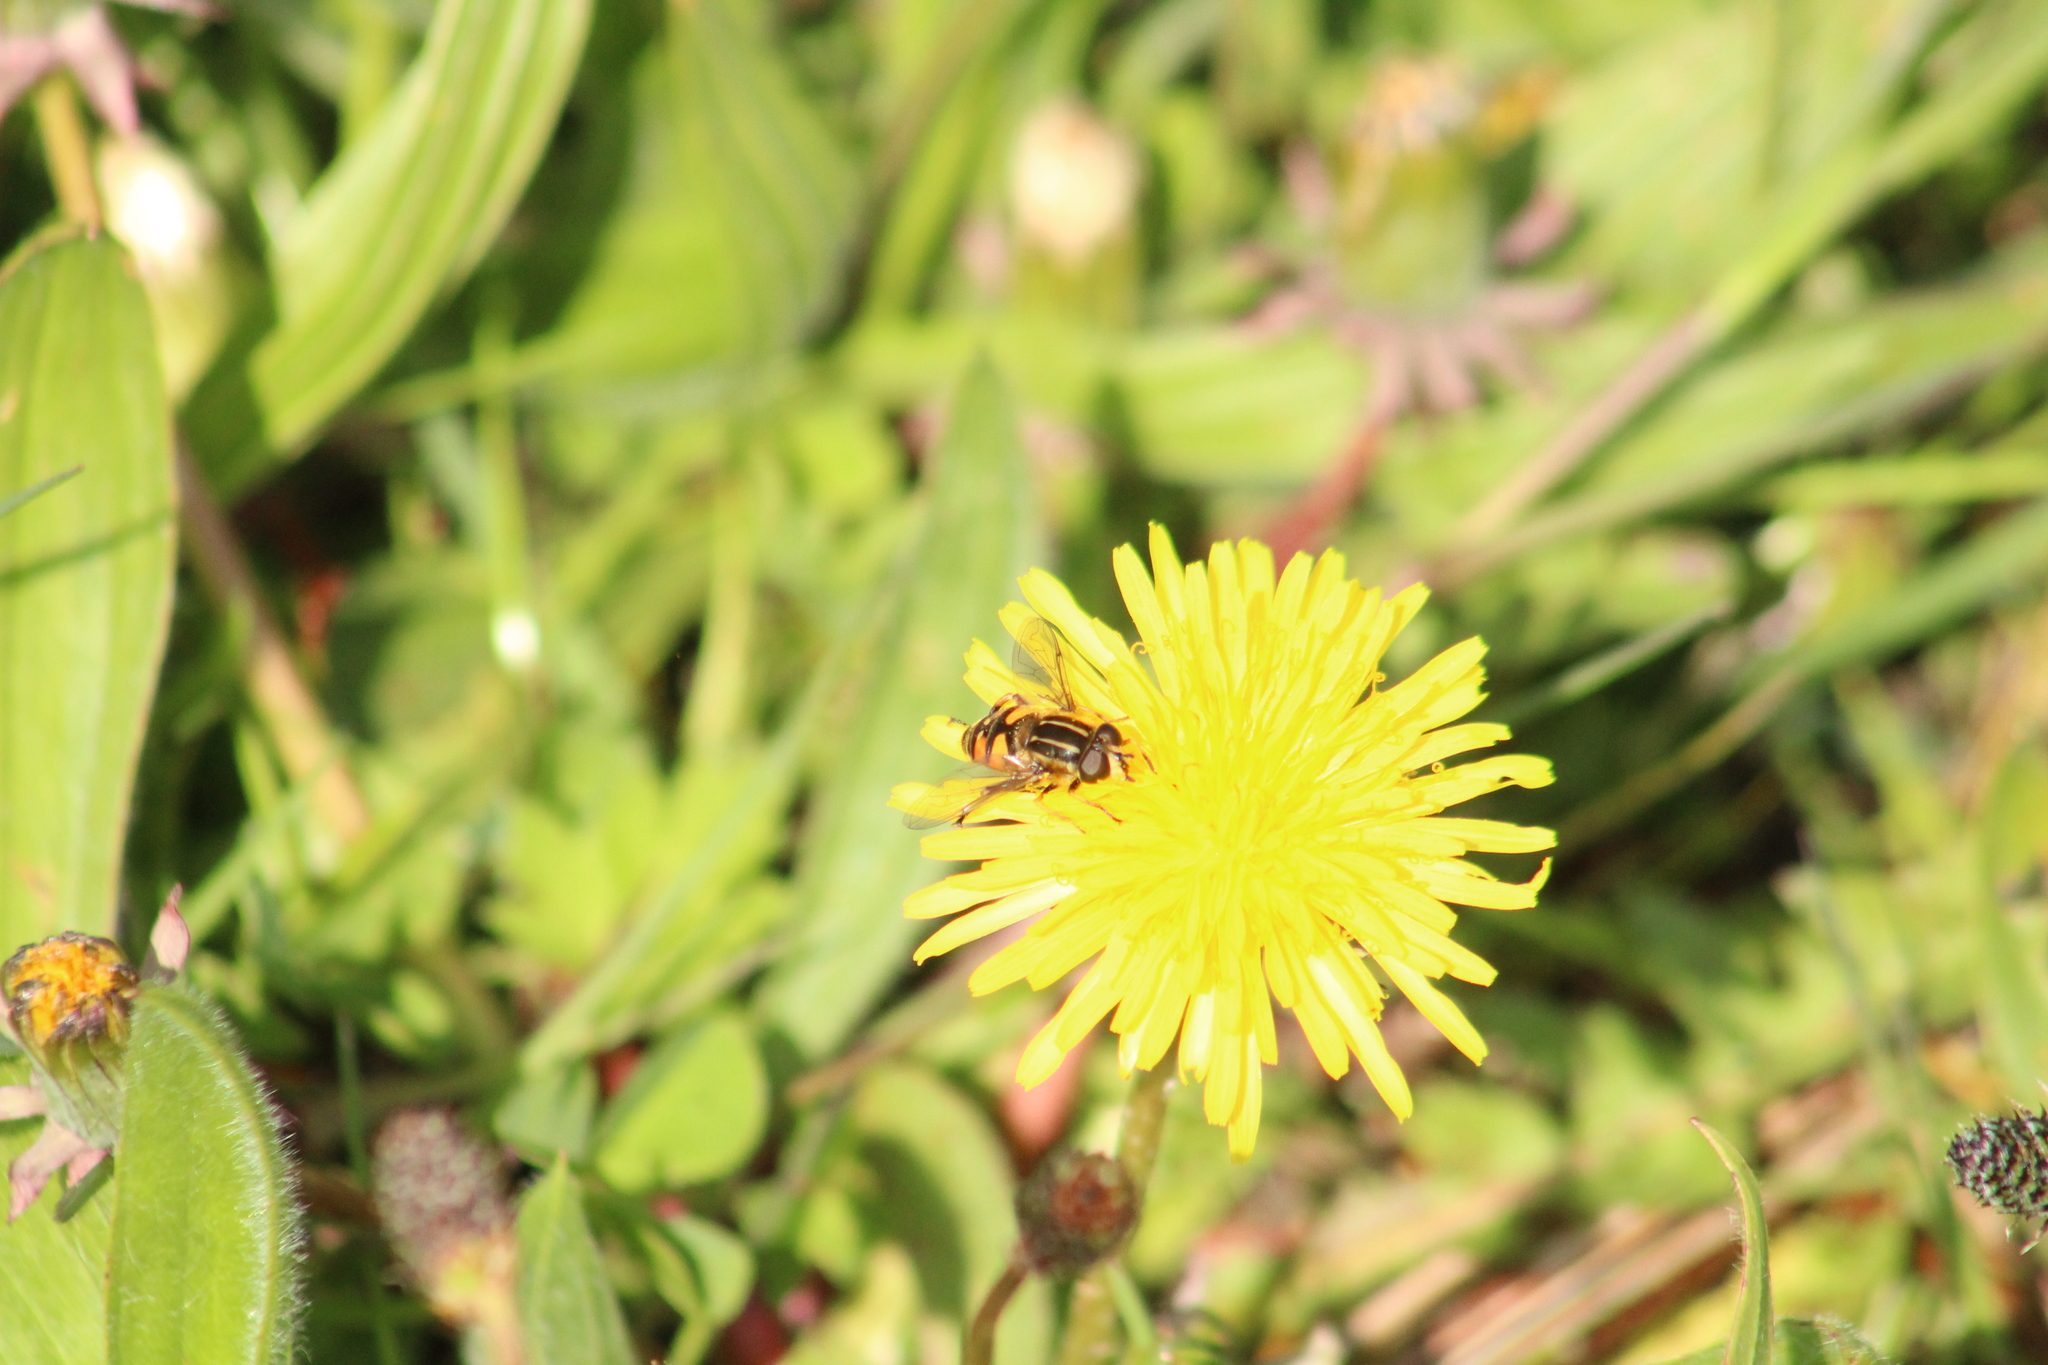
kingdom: Animalia
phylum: Arthropoda
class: Insecta
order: Diptera
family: Syrphidae
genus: Helophilus
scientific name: Helophilus pendulus
